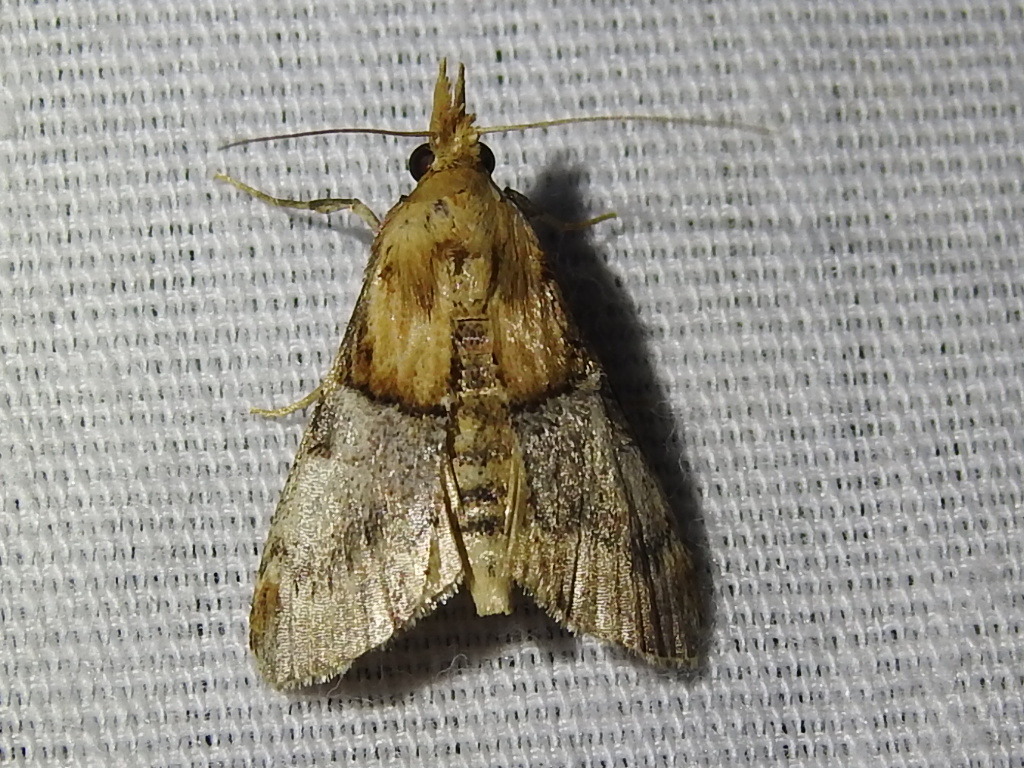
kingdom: Animalia
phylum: Arthropoda
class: Insecta
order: Lepidoptera
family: Pyralidae
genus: Cacozelia
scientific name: Cacozelia elegans
